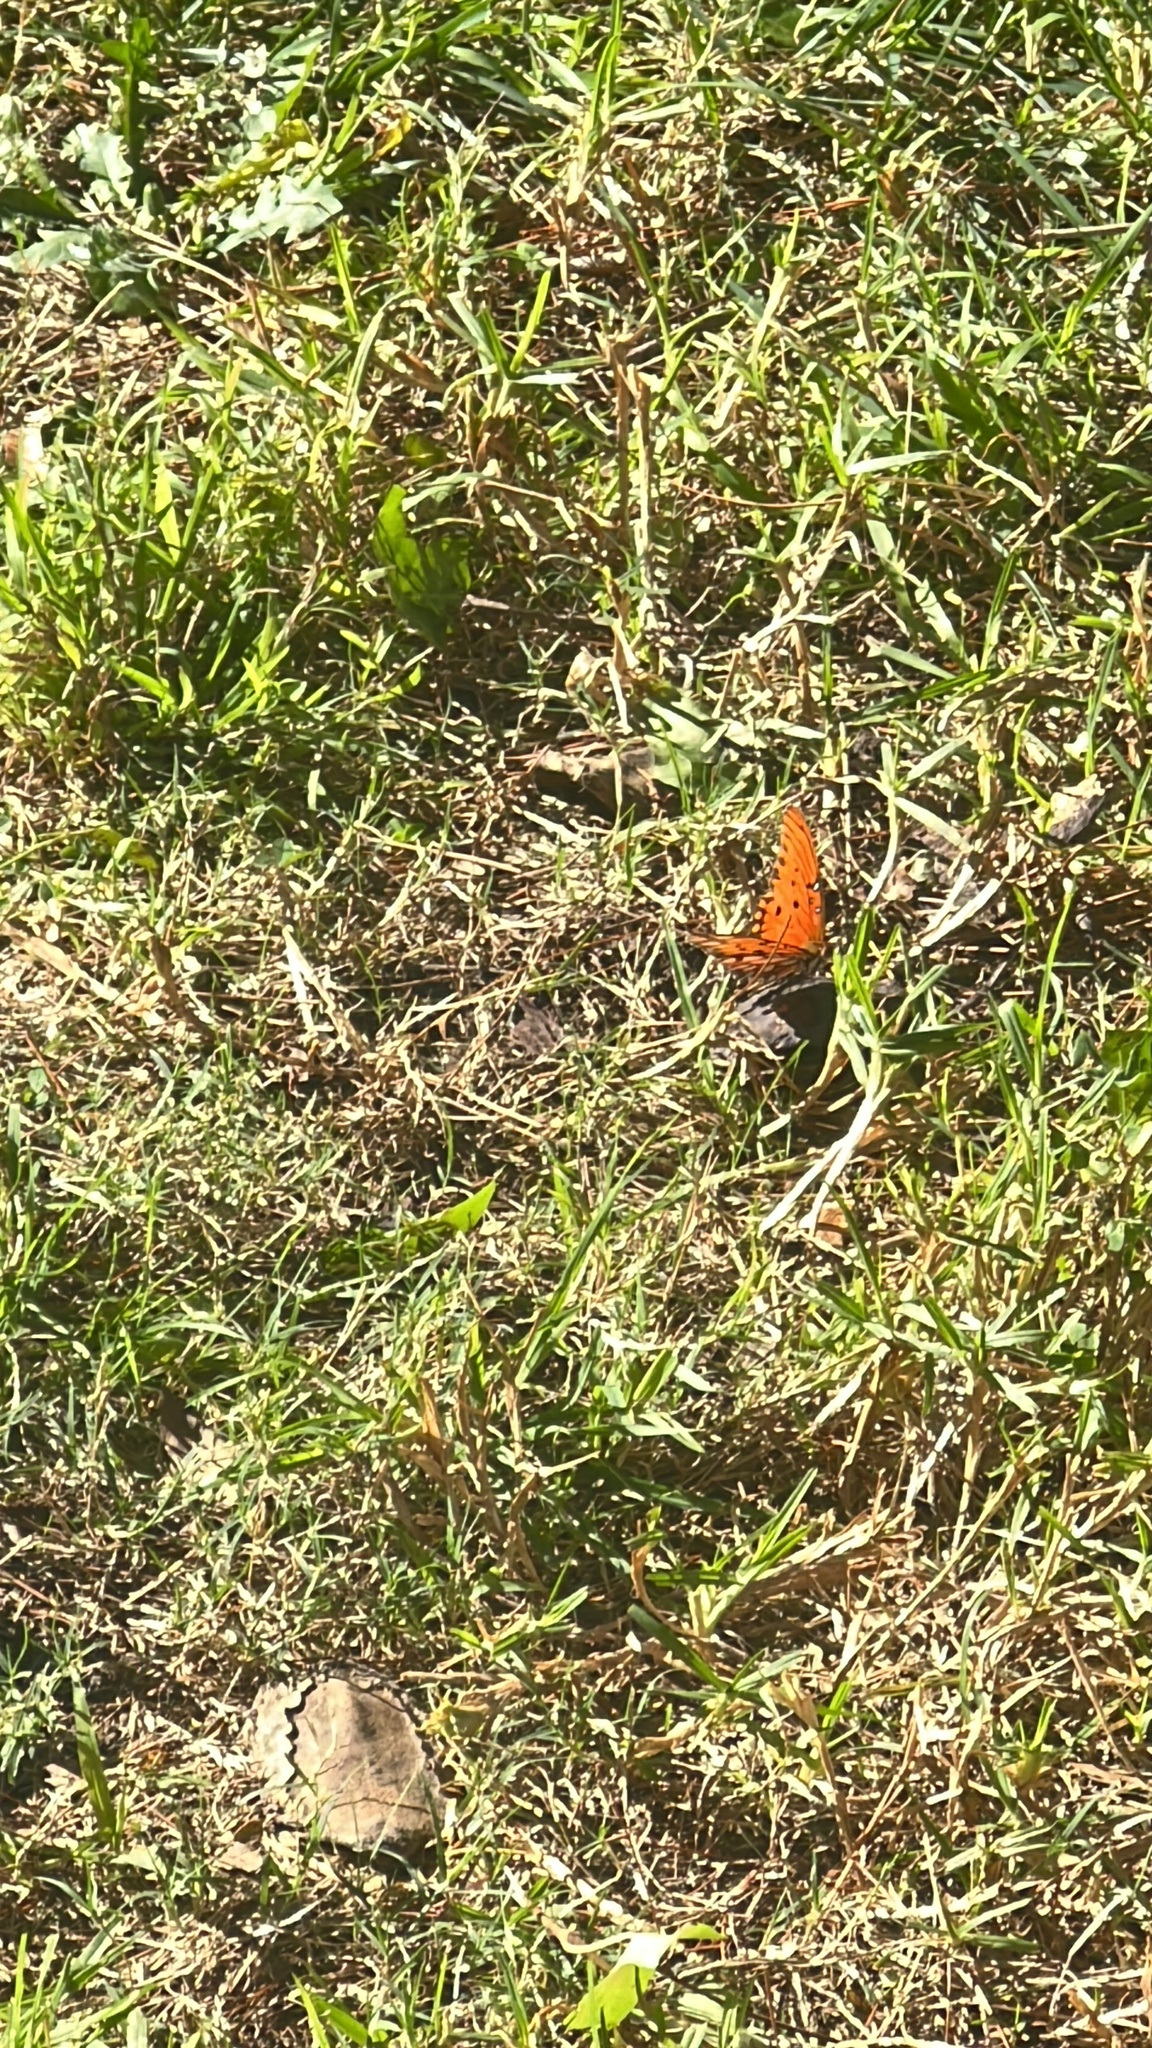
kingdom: Animalia
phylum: Arthropoda
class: Insecta
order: Lepidoptera
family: Nymphalidae
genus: Dione
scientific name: Dione vanillae
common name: Gulf fritillary
